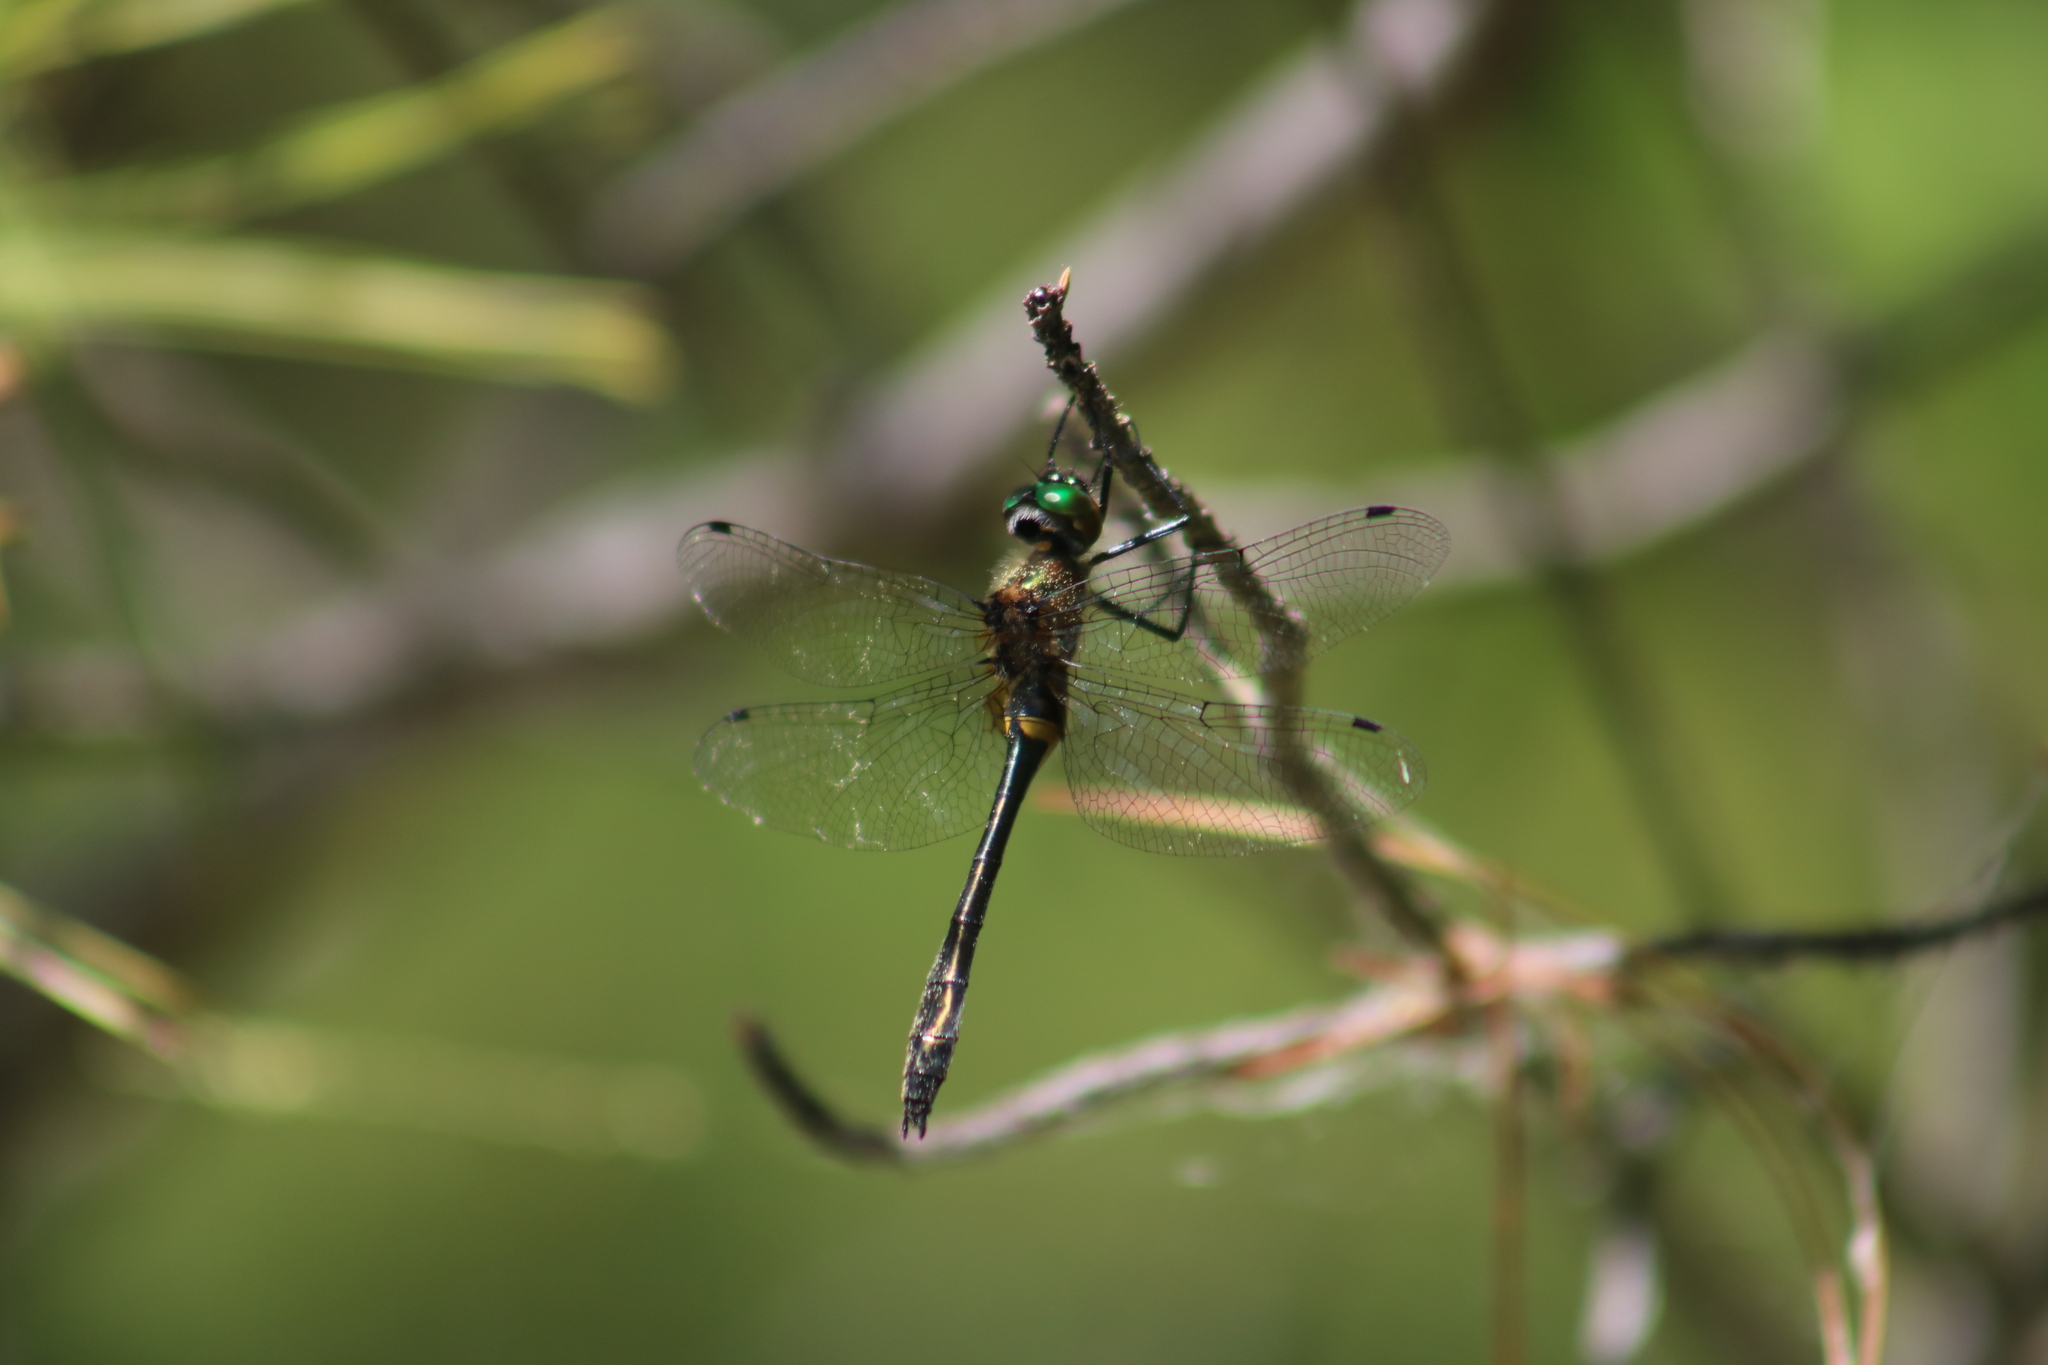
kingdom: Animalia
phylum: Arthropoda
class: Insecta
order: Odonata
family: Corduliidae
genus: Dorocordulia
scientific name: Dorocordulia libera
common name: Racket-tailed emerald
